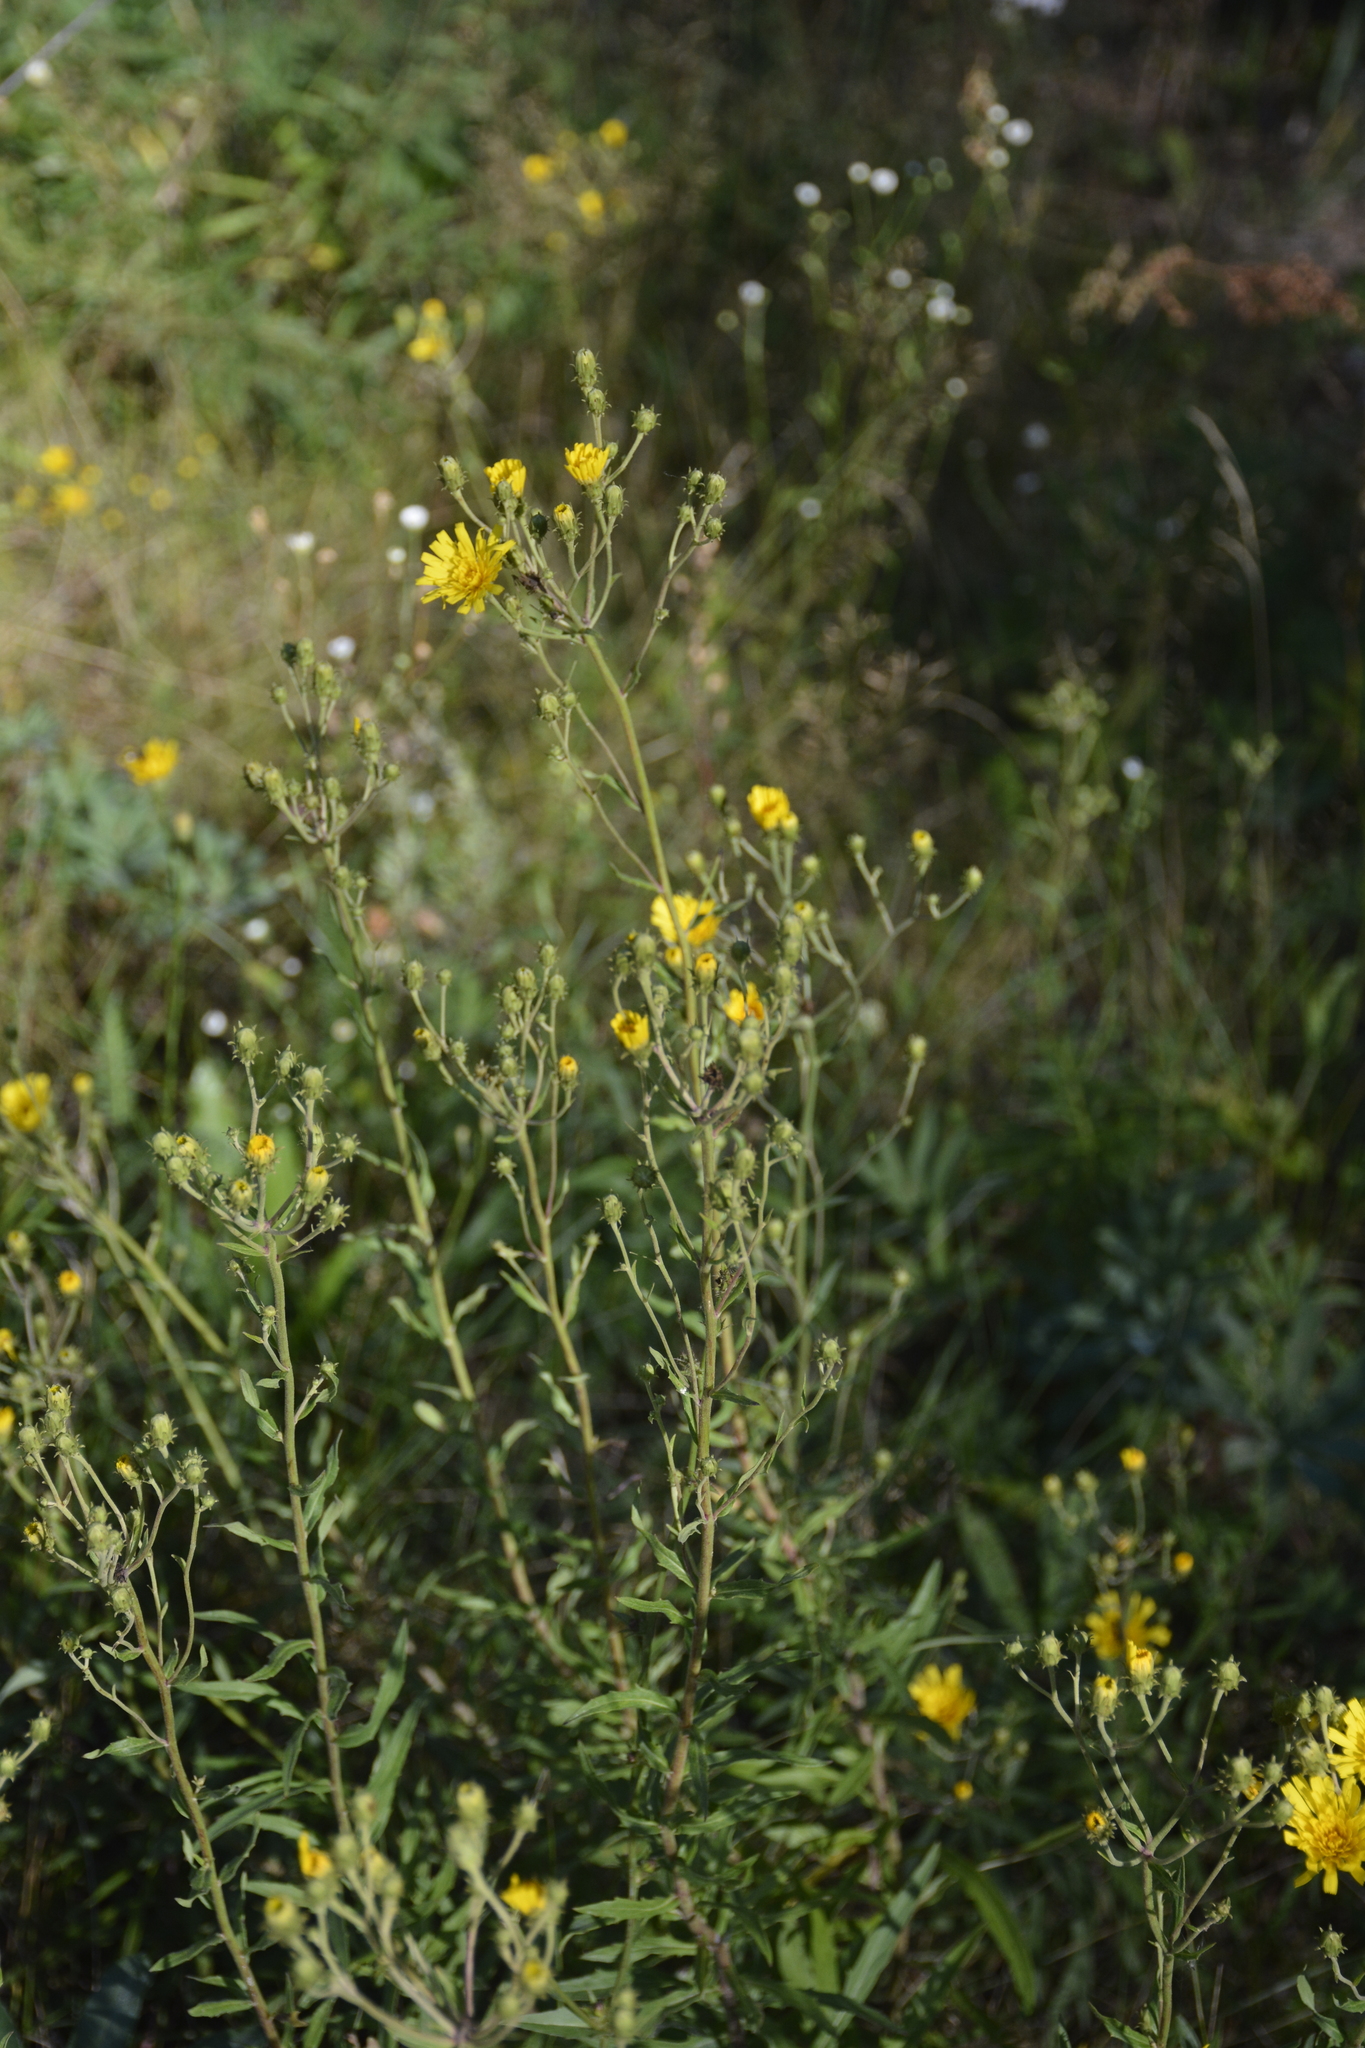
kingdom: Plantae
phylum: Tracheophyta
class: Magnoliopsida
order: Asterales
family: Asteraceae
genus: Hieracium
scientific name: Hieracium umbellatum
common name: Northern hawkweed
